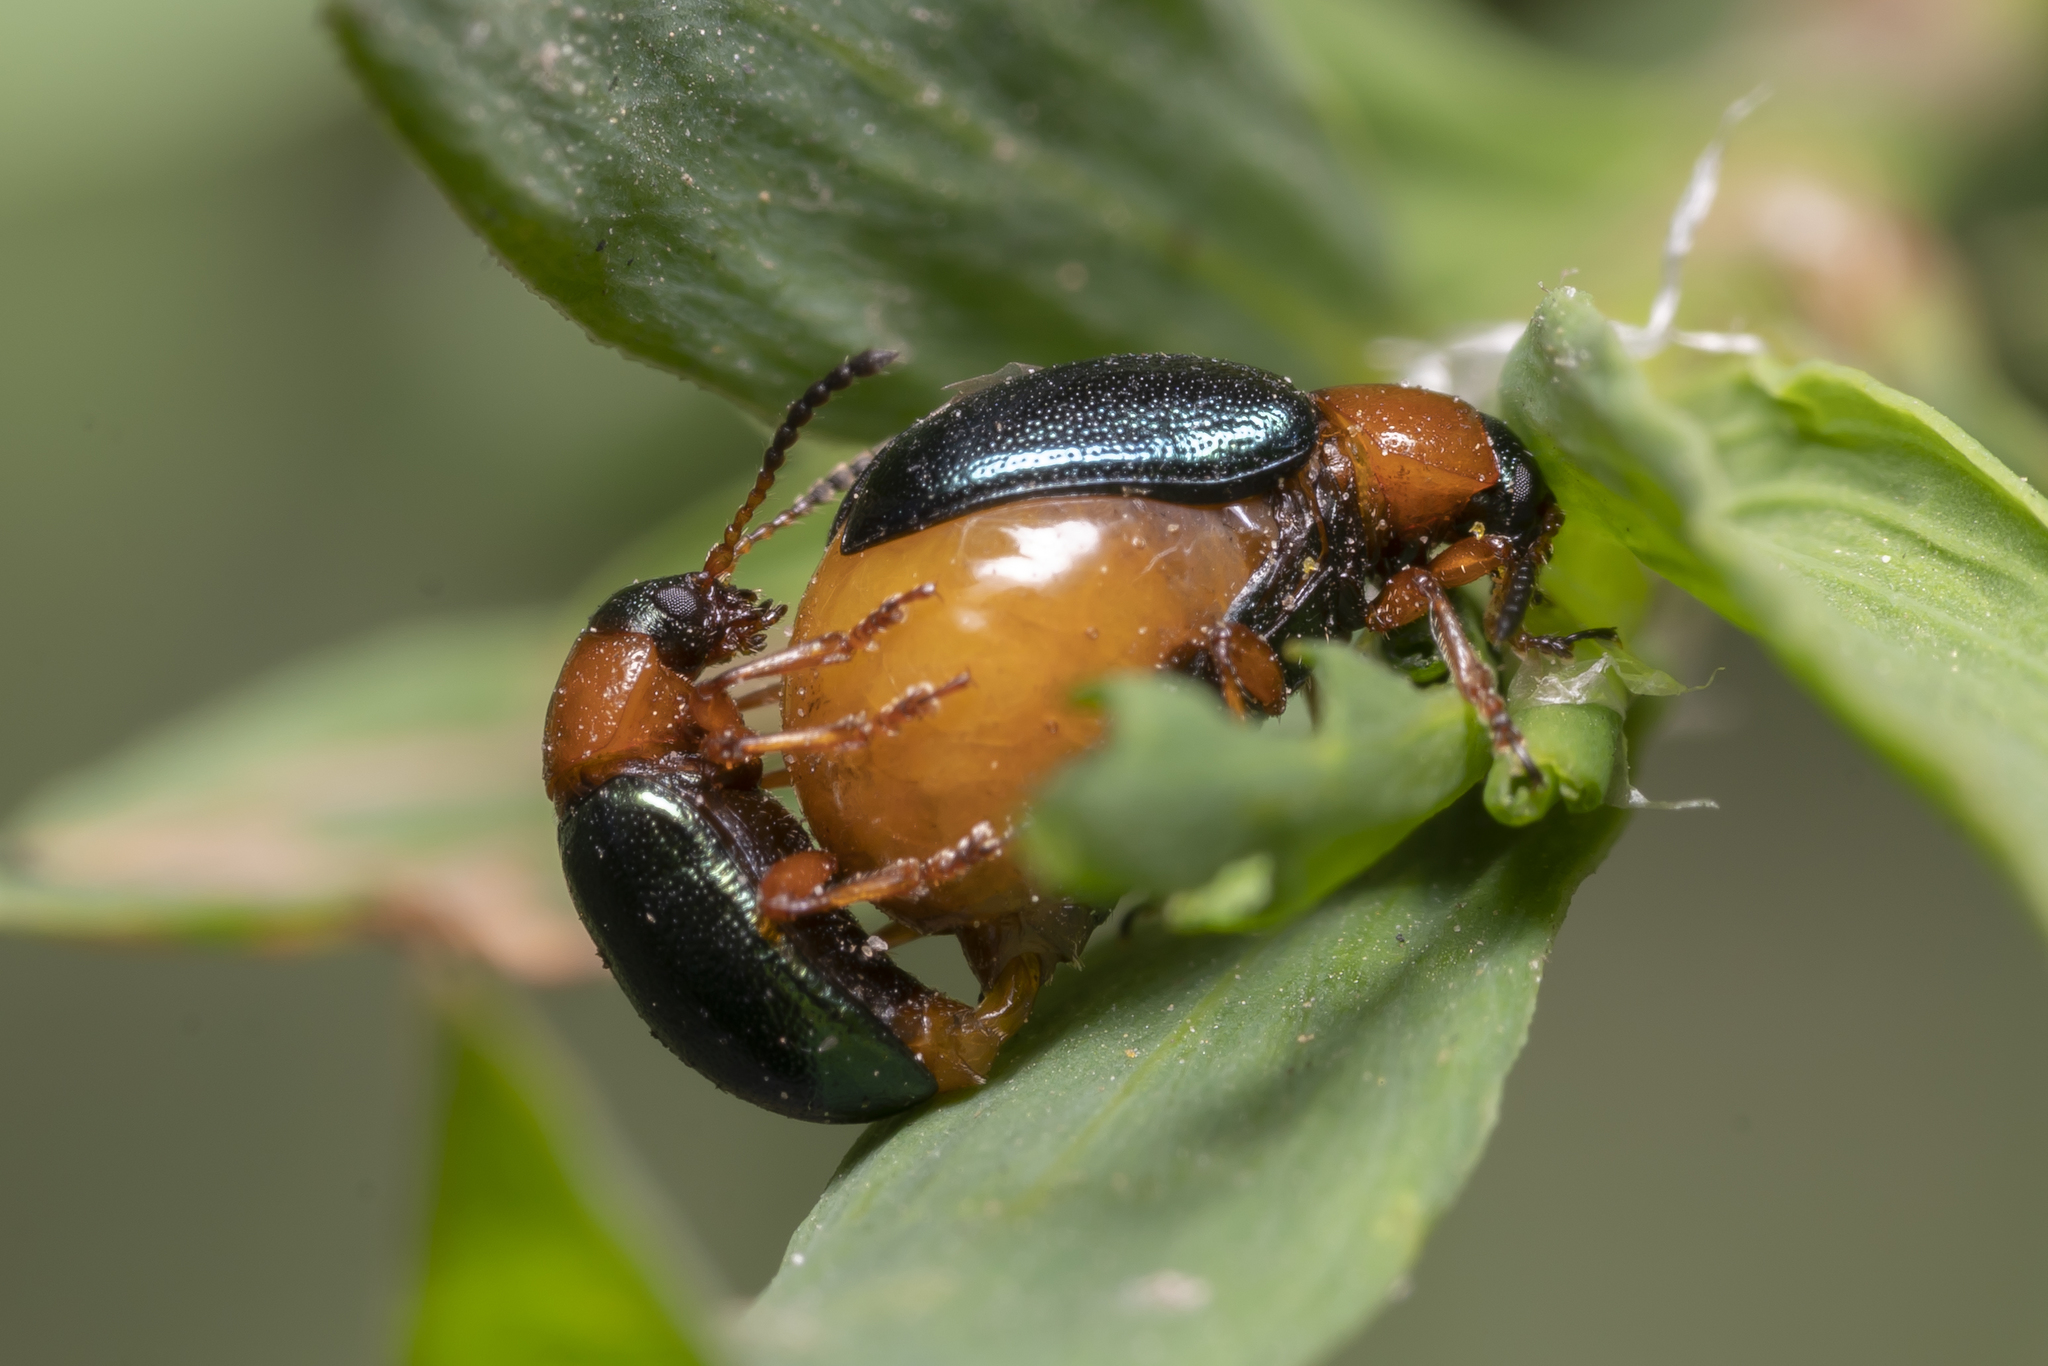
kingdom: Animalia
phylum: Arthropoda
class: Insecta
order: Coleoptera
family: Chrysomelidae
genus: Gastrophysa
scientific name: Gastrophysa polygoni
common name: Knotweed leaf beetle
